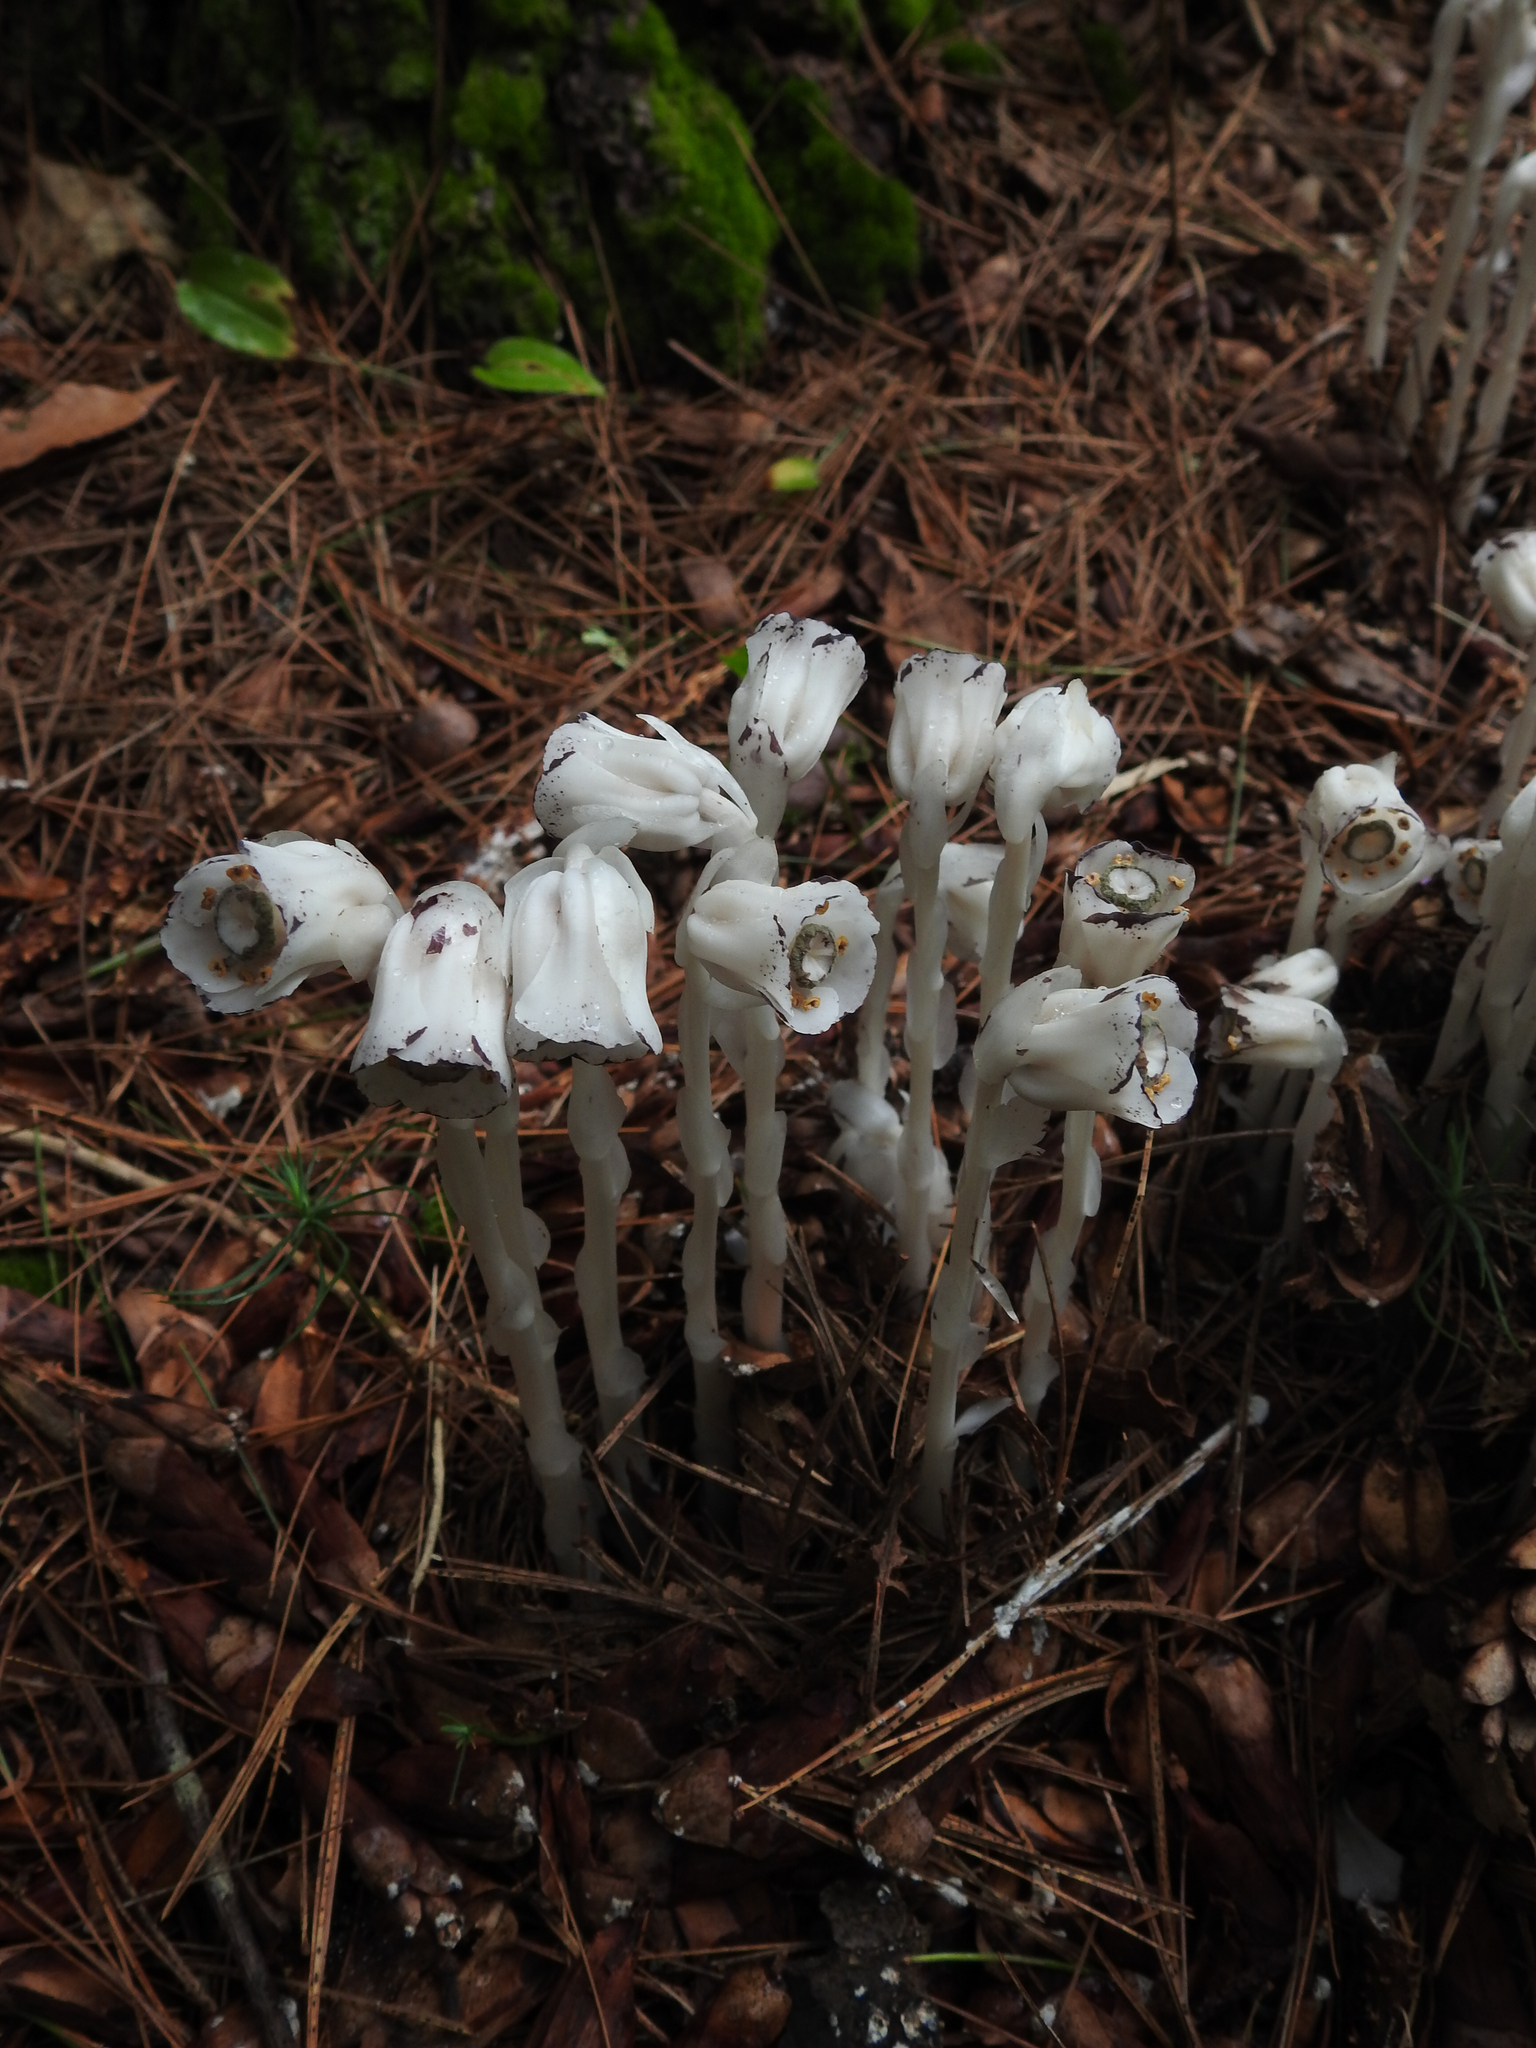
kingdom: Plantae
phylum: Tracheophyta
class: Magnoliopsida
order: Ericales
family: Ericaceae
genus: Monotropa
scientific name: Monotropa uniflora
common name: Convulsion root
